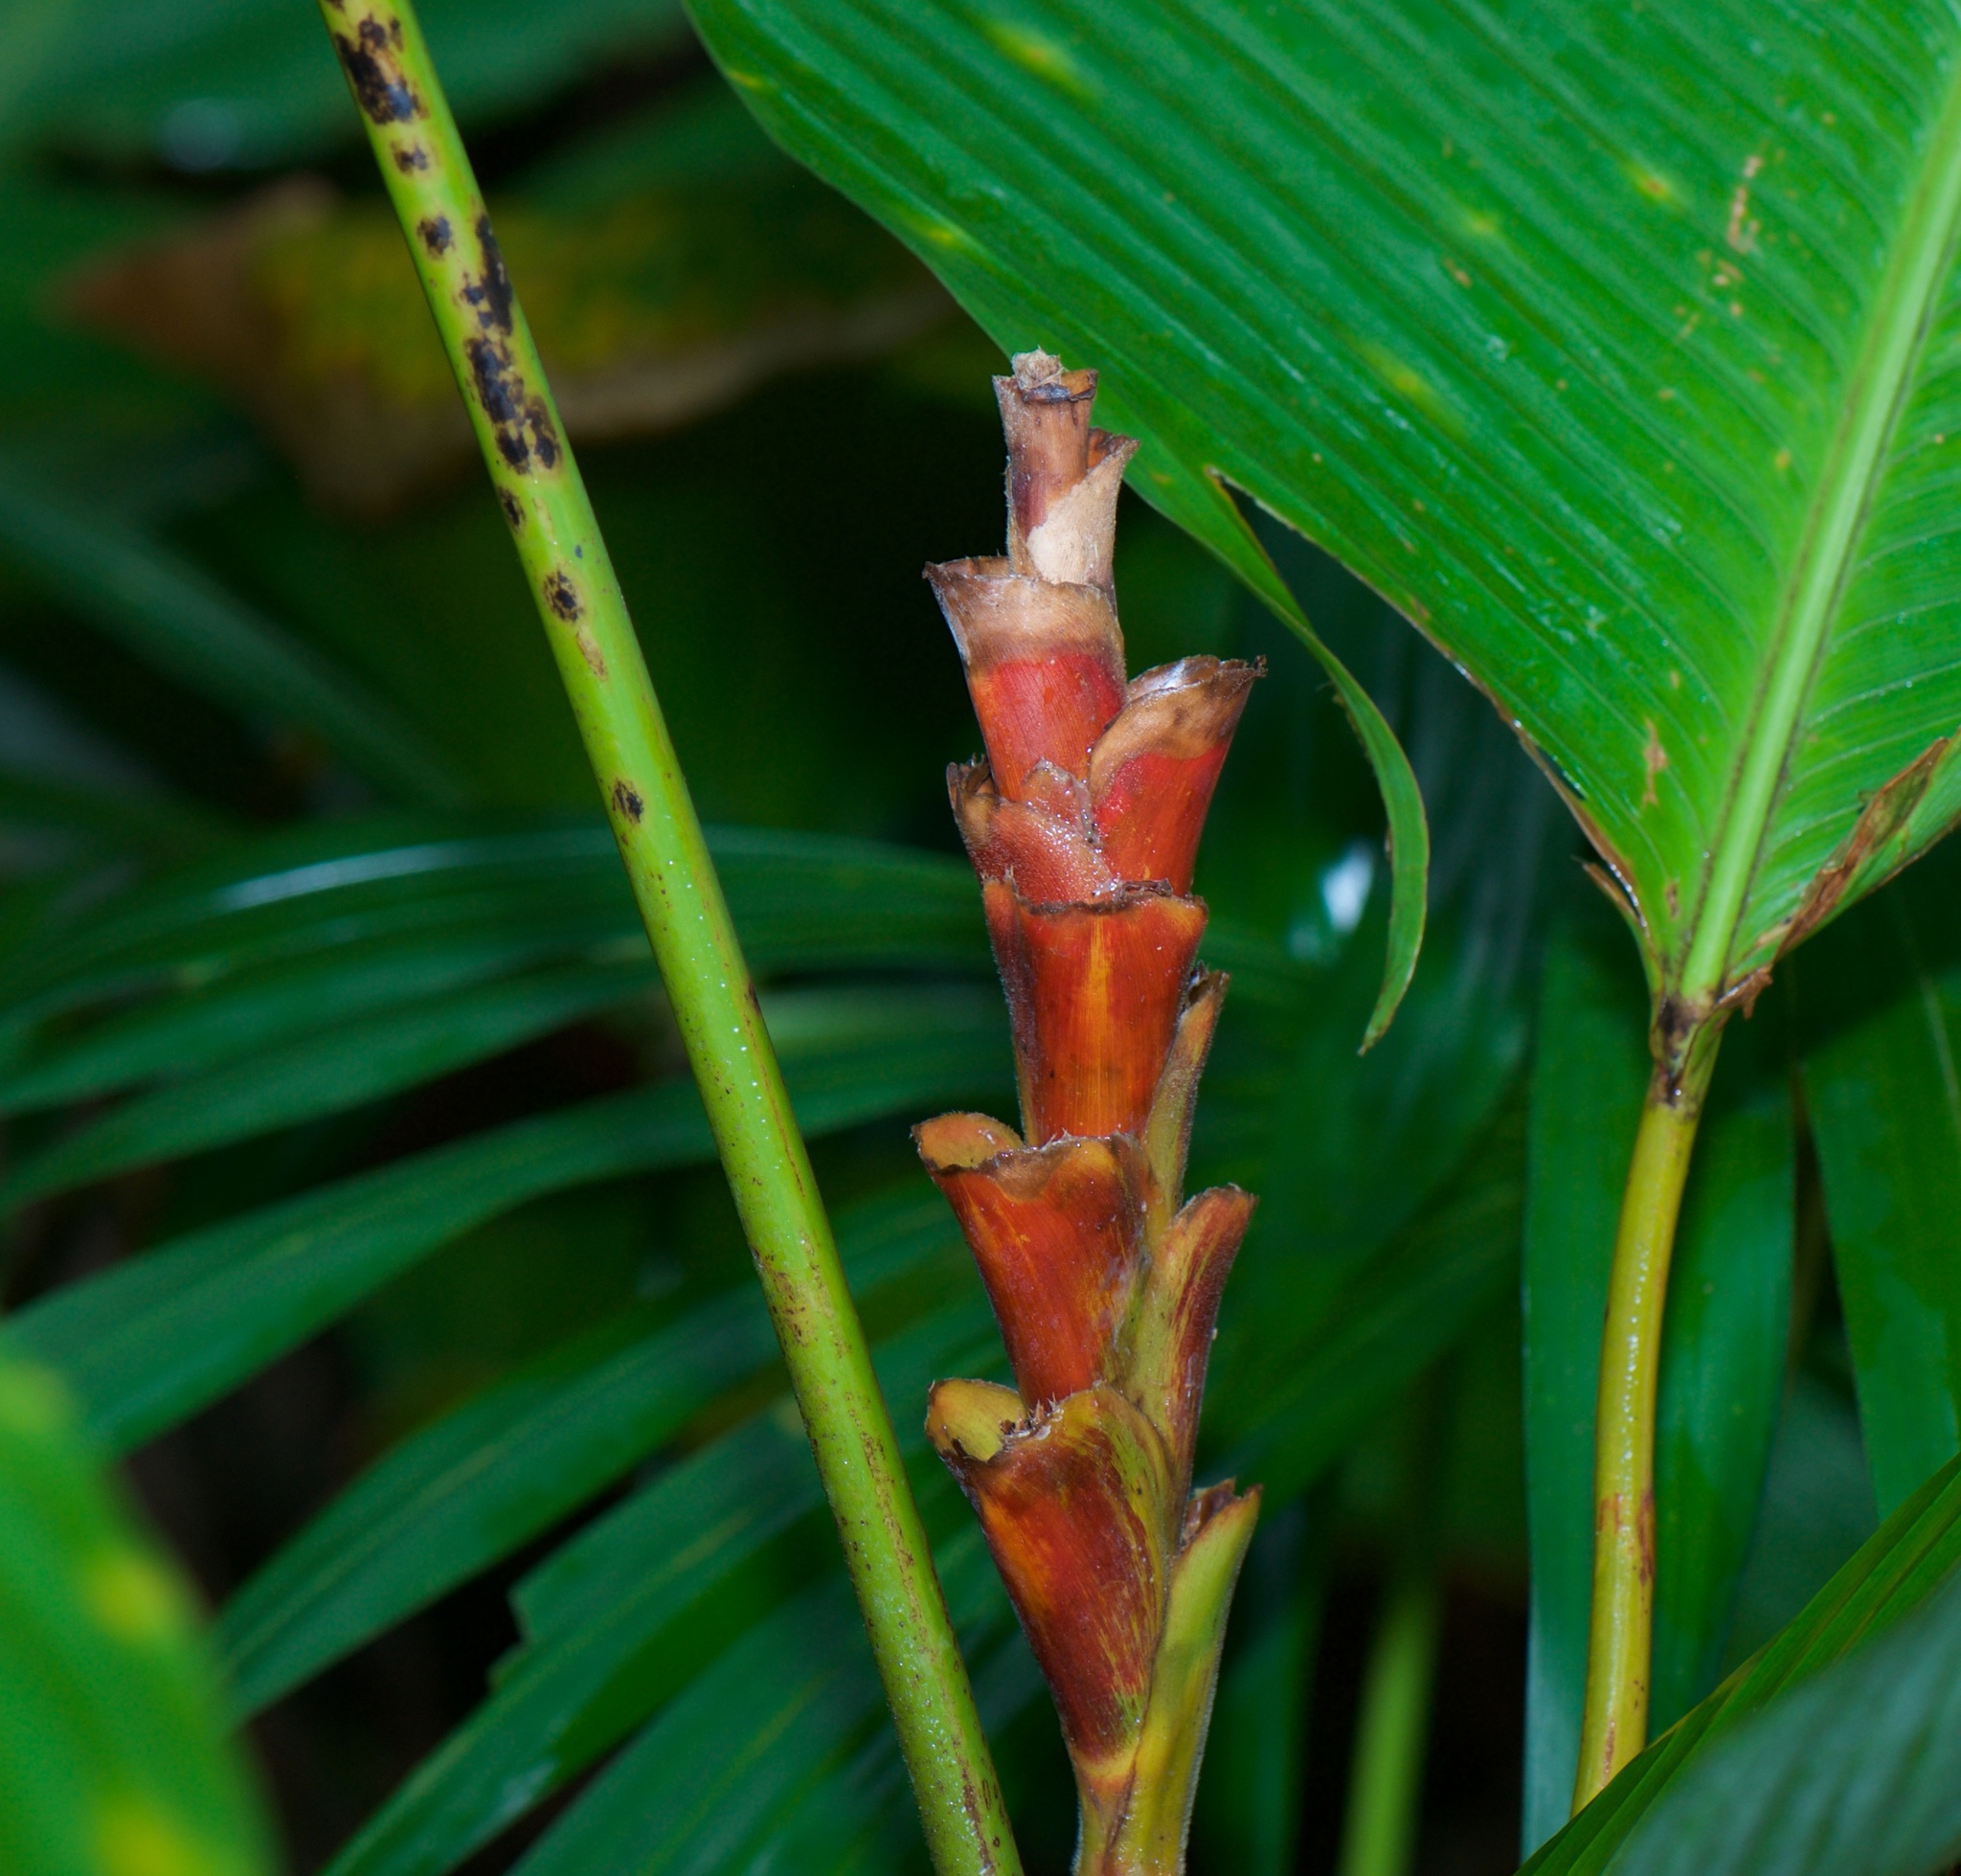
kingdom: Plantae
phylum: Tracheophyta
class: Liliopsida
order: Zingiberales
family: Marantaceae
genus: Calathea
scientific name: Calathea lutea
